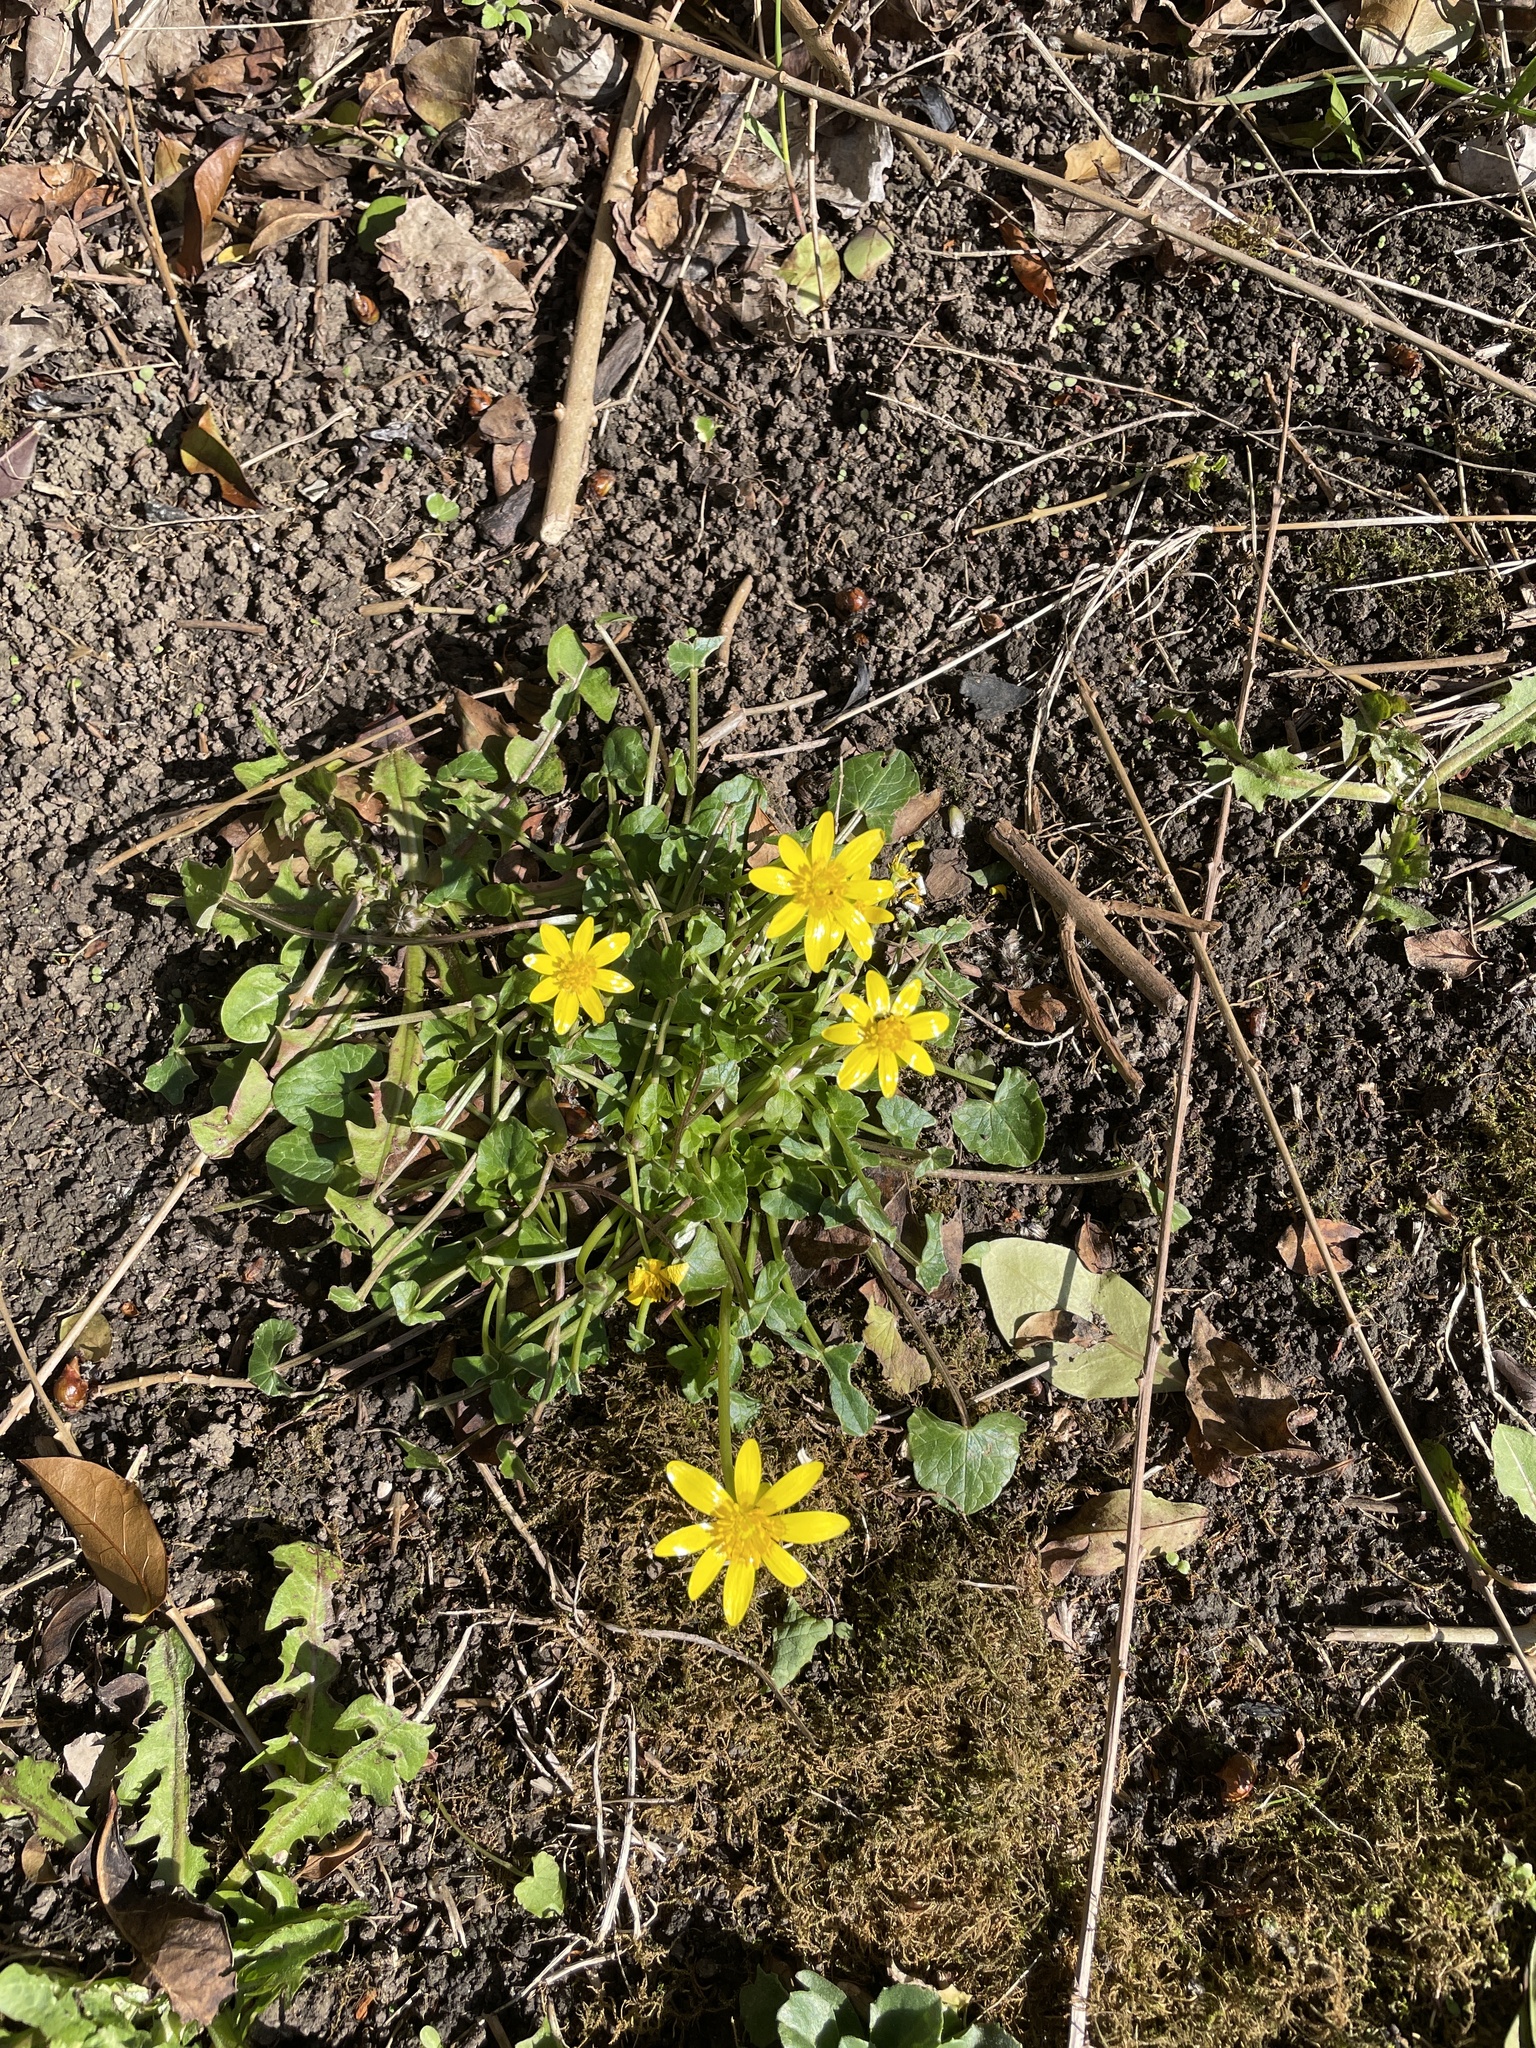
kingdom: Plantae
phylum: Tracheophyta
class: Magnoliopsida
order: Ranunculales
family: Ranunculaceae
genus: Ficaria
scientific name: Ficaria verna
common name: Lesser celandine
